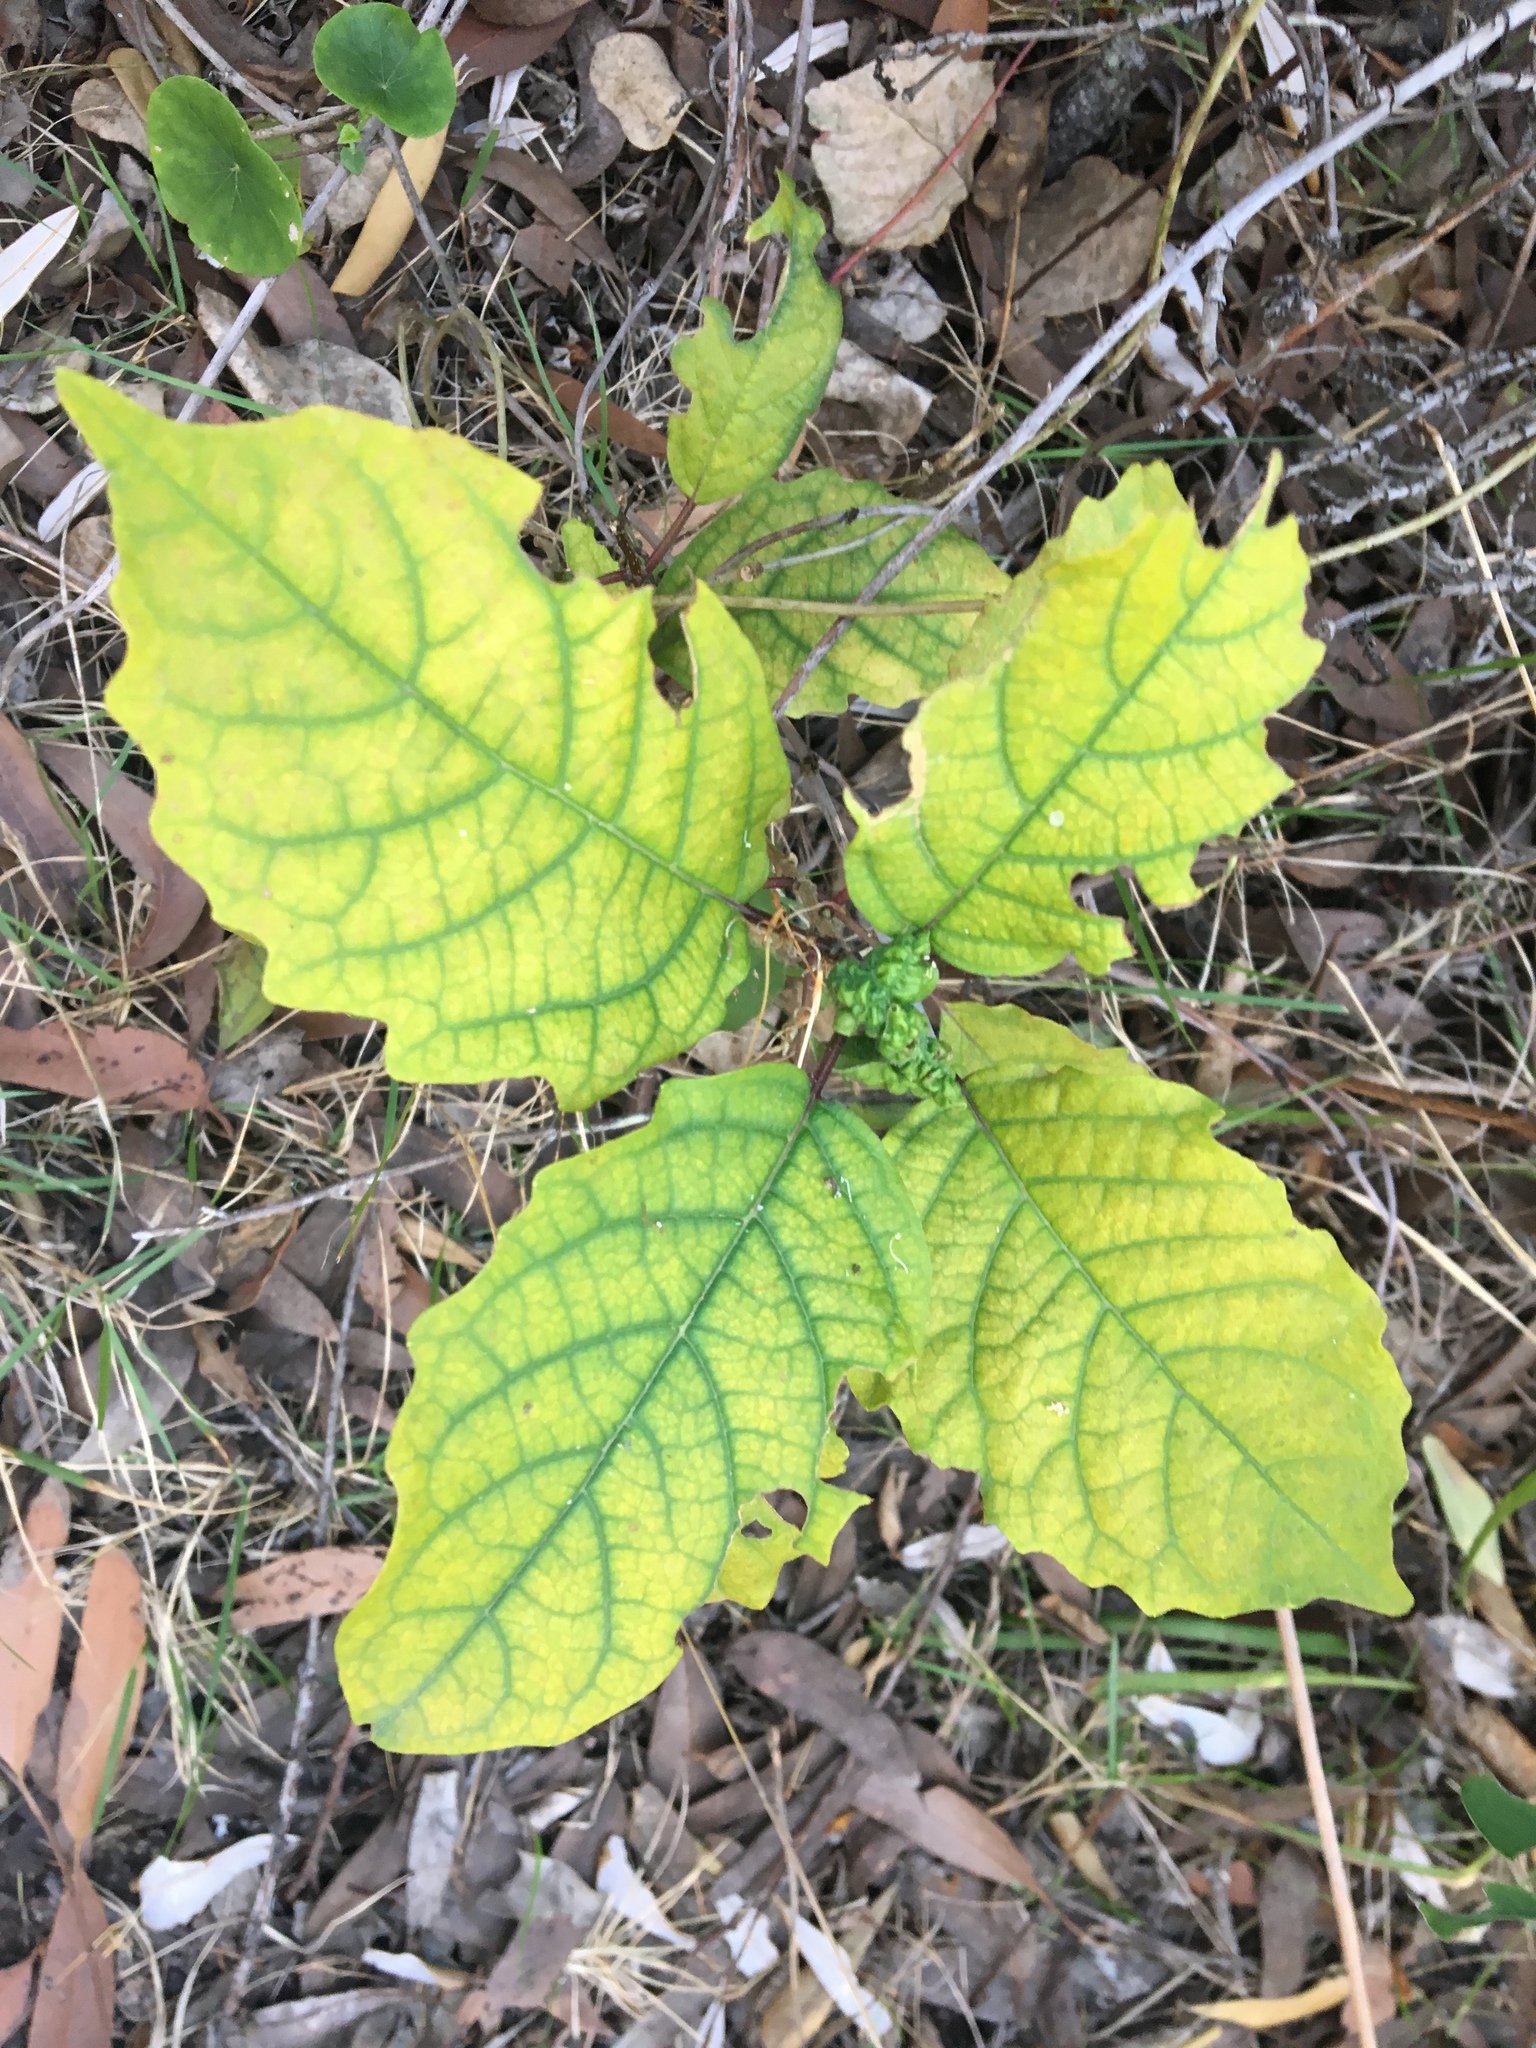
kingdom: Plantae
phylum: Tracheophyta
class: Magnoliopsida
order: Lamiales
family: Lamiaceae
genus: Clerodendrum
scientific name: Clerodendrum floribundum
